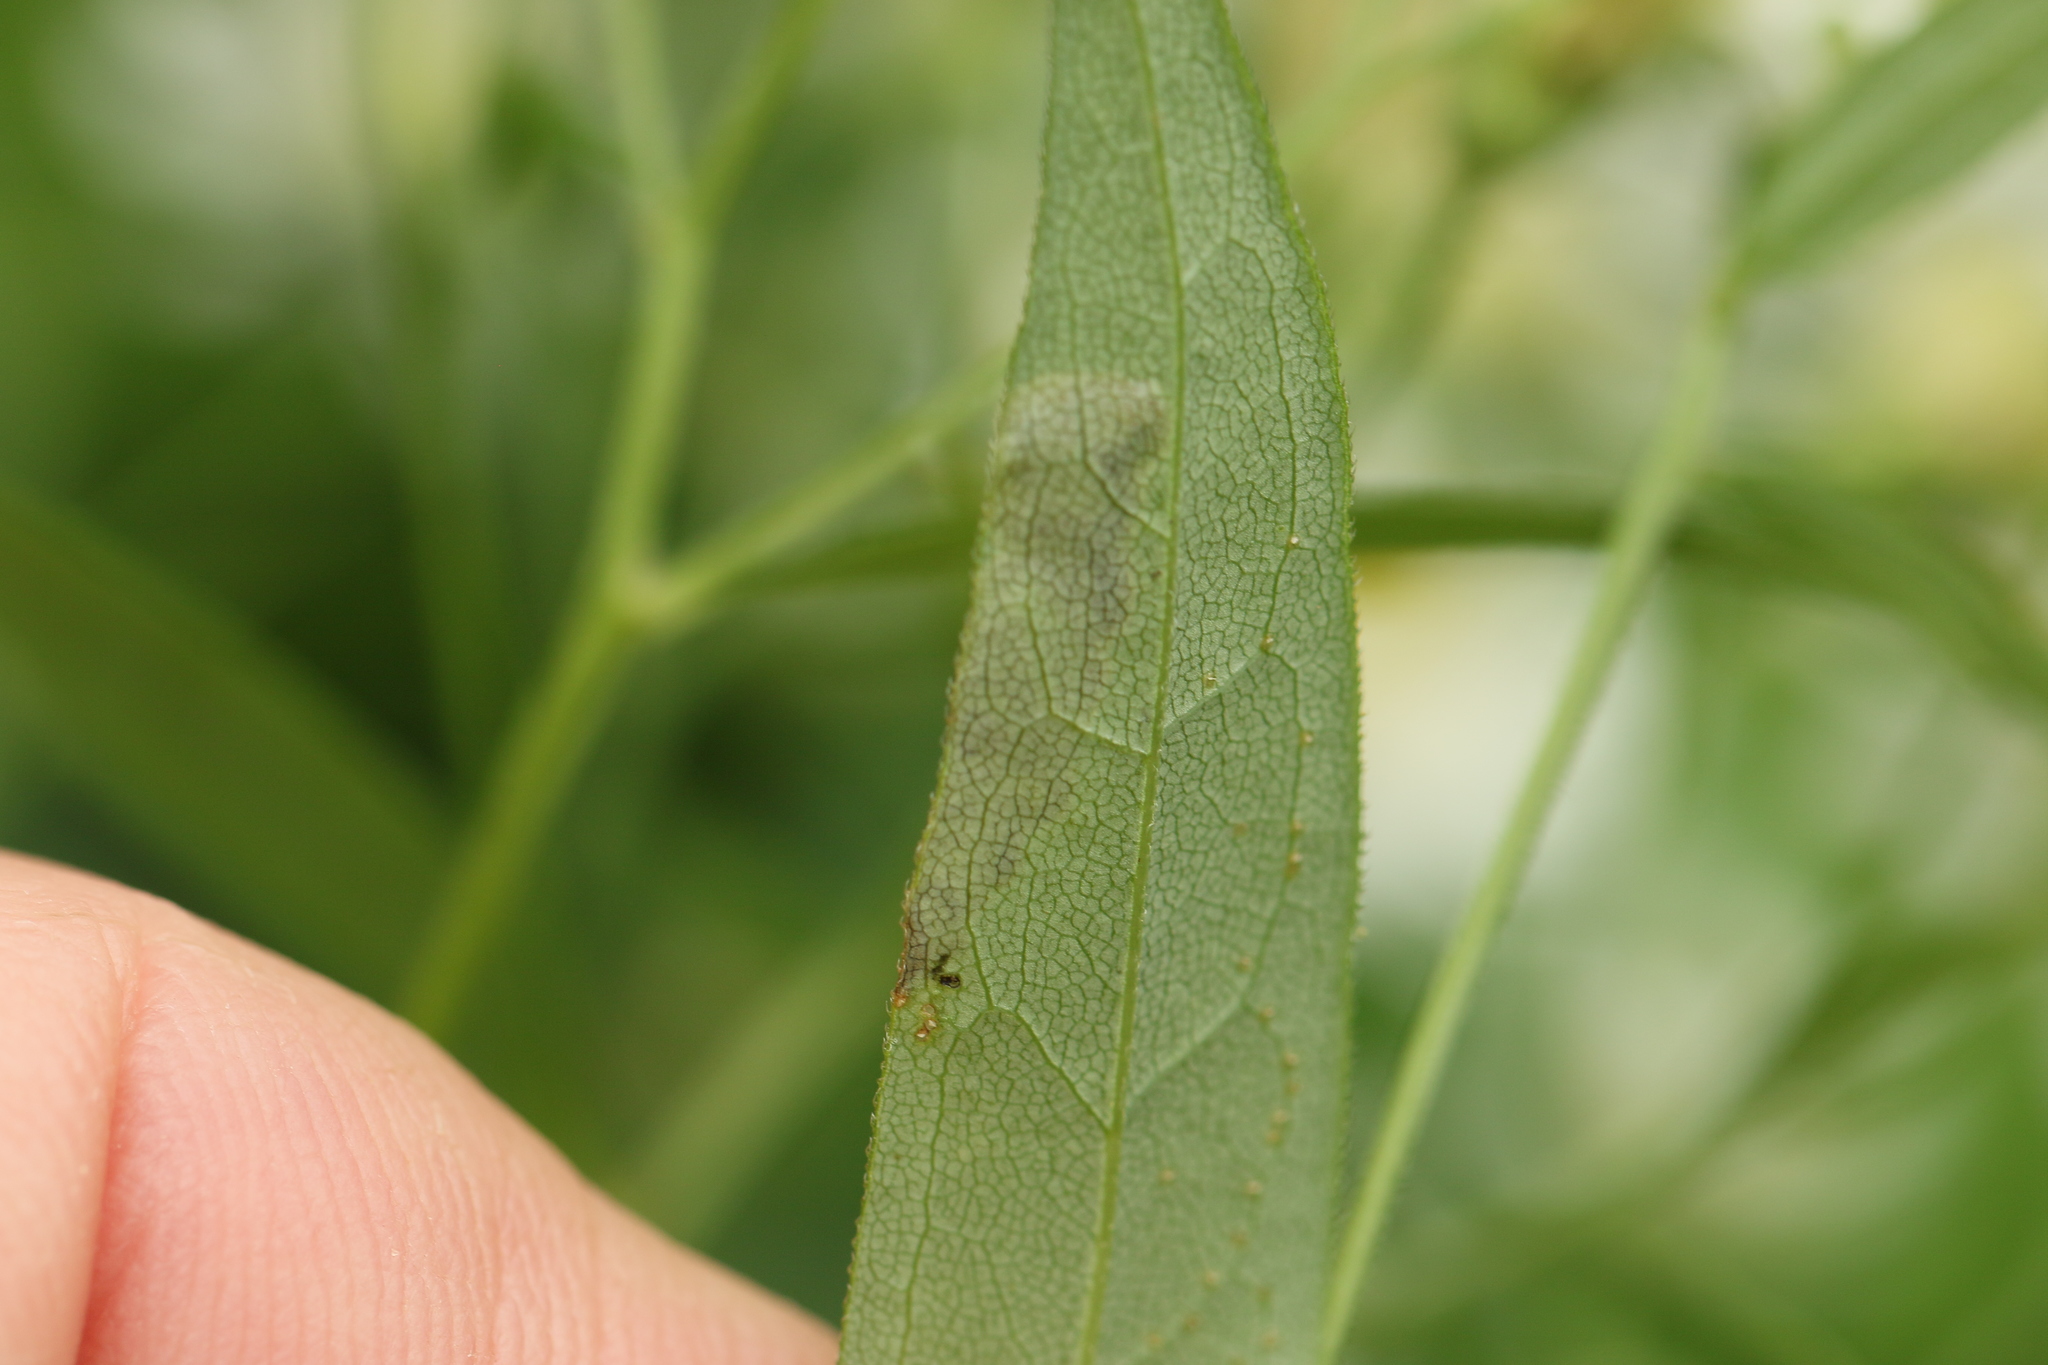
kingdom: Animalia
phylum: Arthropoda
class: Insecta
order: Diptera
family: Agromyzidae
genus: Nemorimyza
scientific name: Nemorimyza posticata
